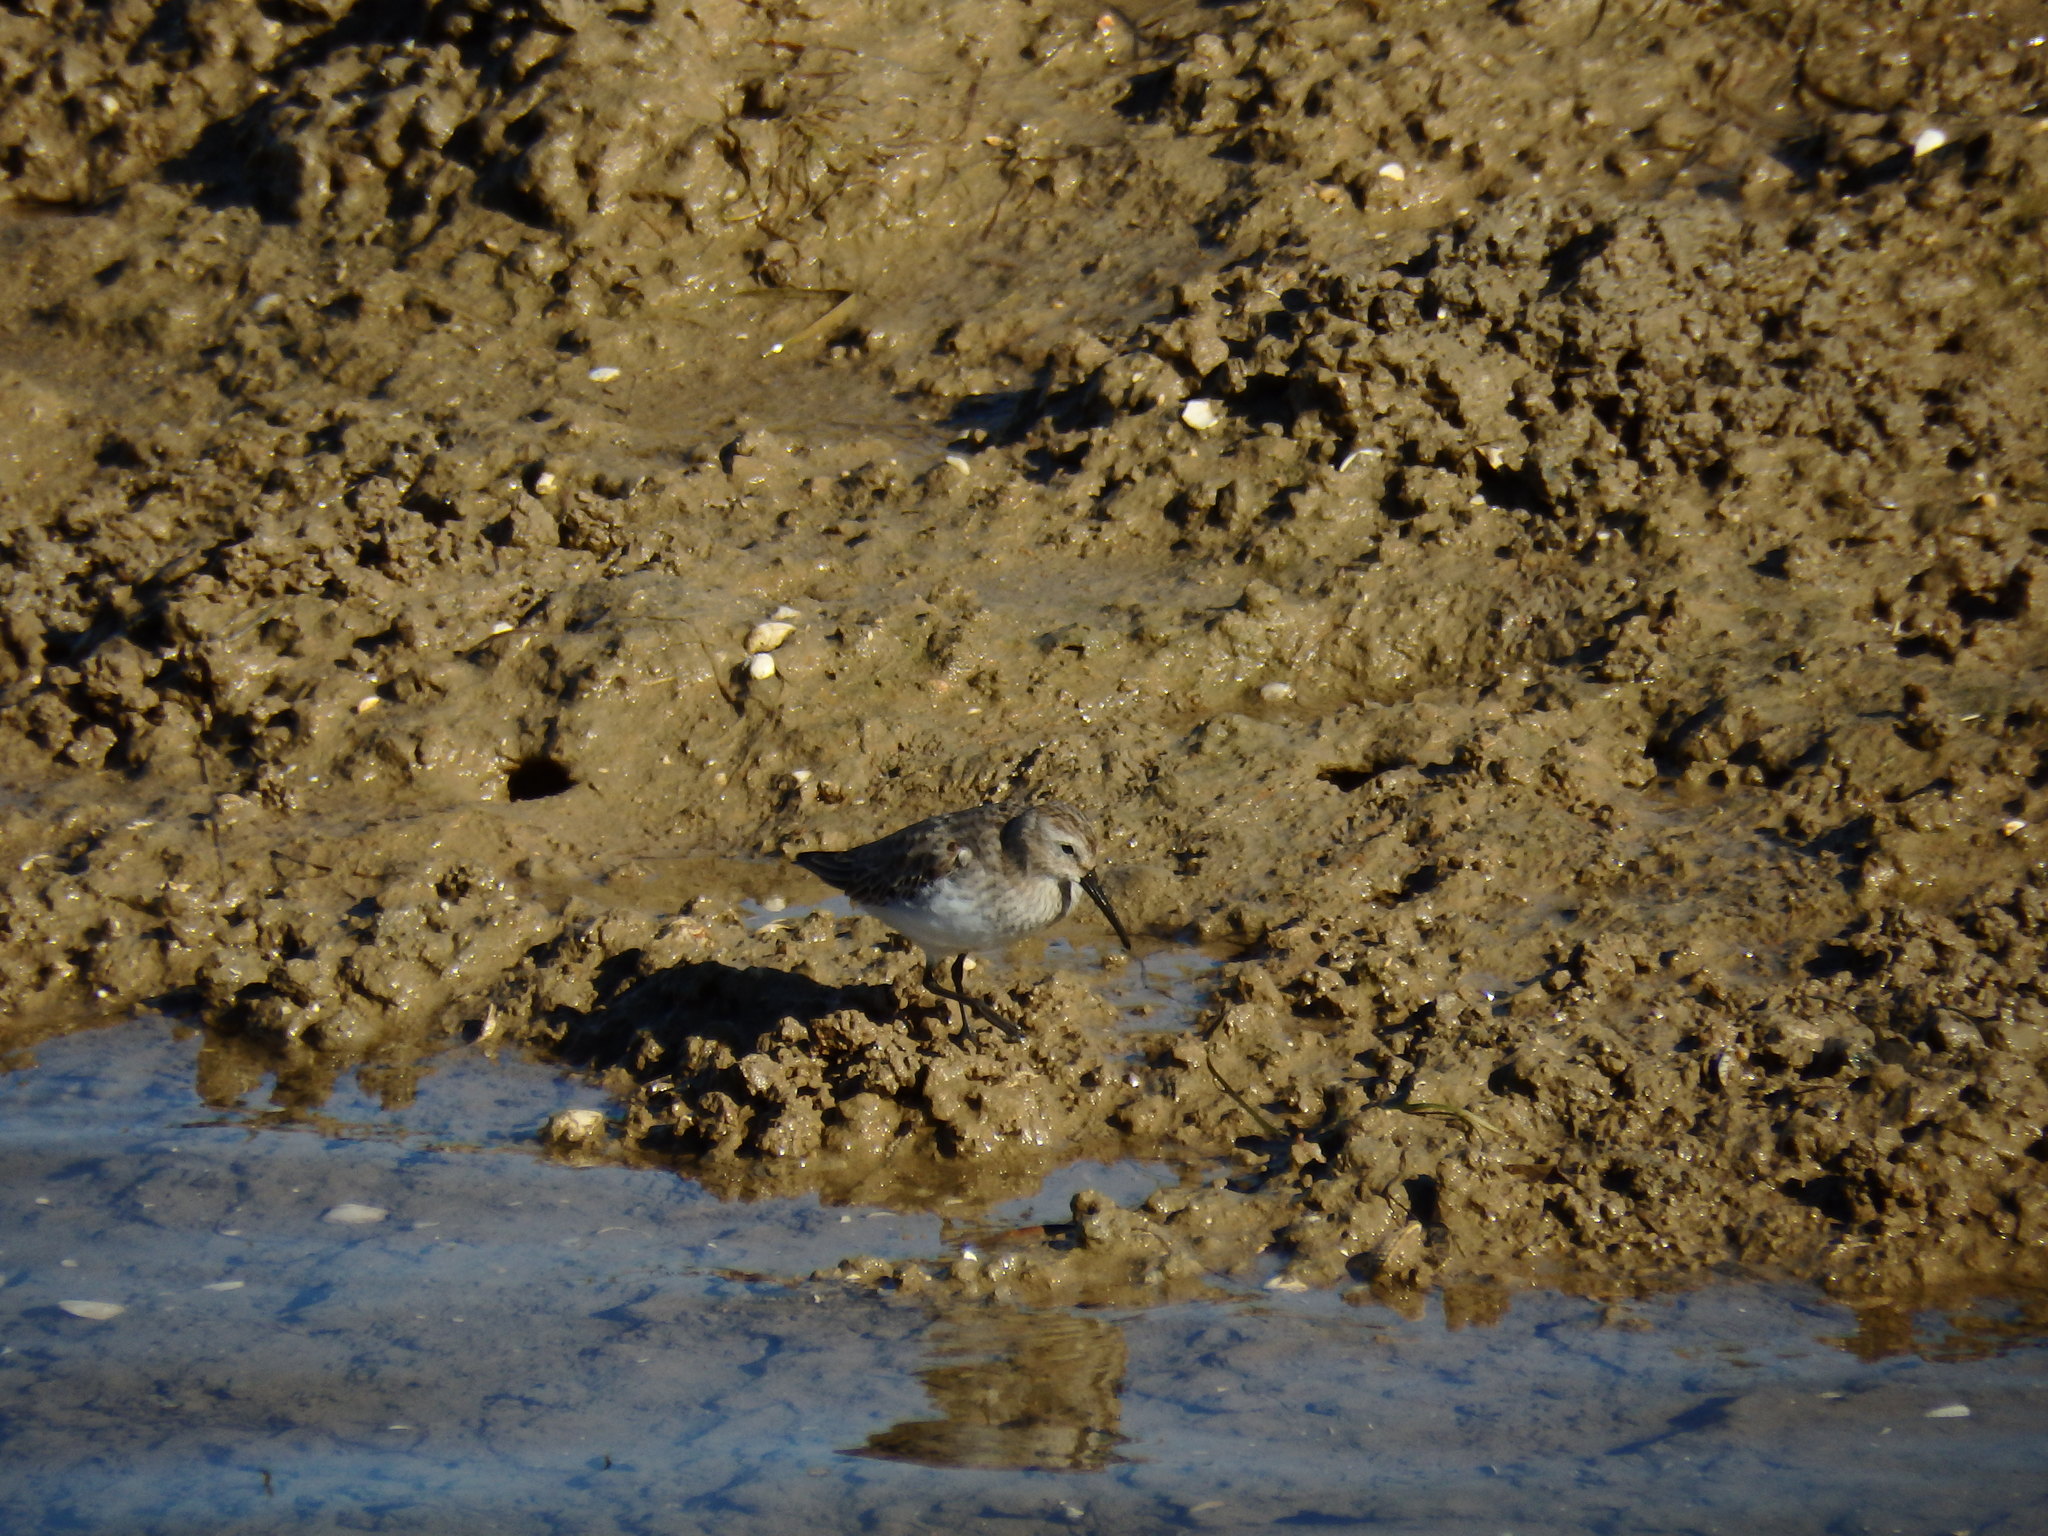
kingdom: Animalia
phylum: Chordata
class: Aves
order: Charadriiformes
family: Scolopacidae
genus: Calidris
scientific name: Calidris alpina
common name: Dunlin
